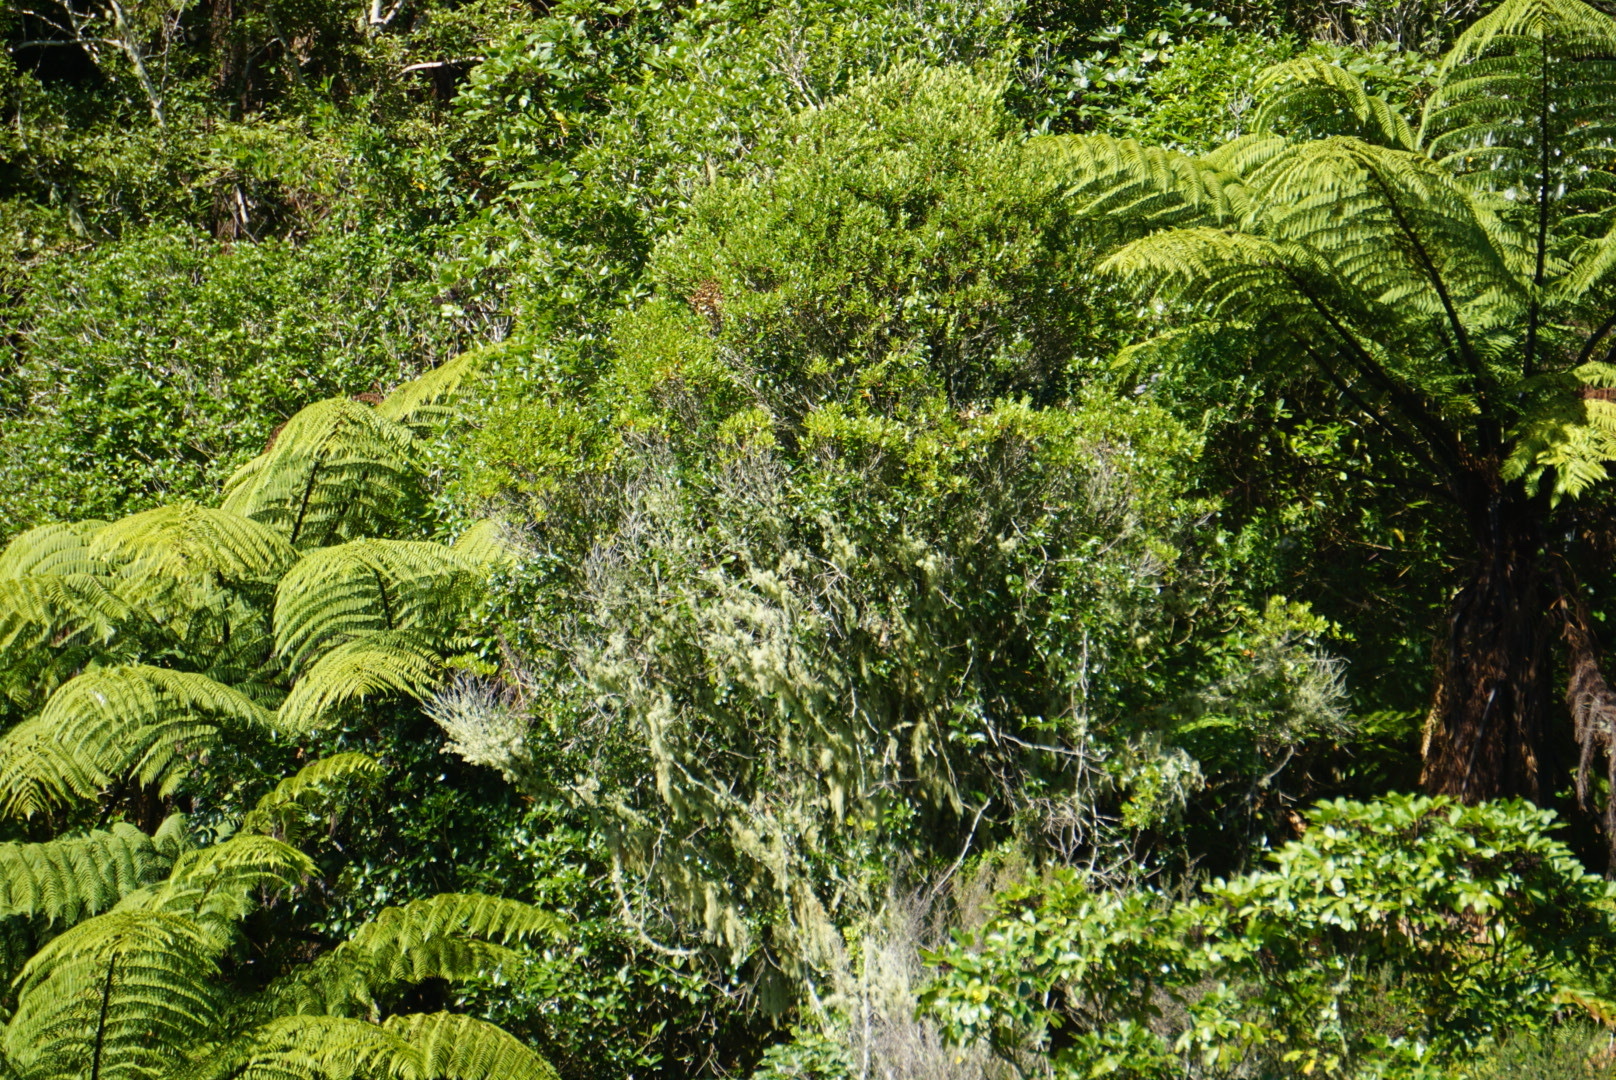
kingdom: Plantae
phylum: Tracheophyta
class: Magnoliopsida
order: Myrtales
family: Myrtaceae
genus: Metrosideros
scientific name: Metrosideros robusta
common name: Northern rata
